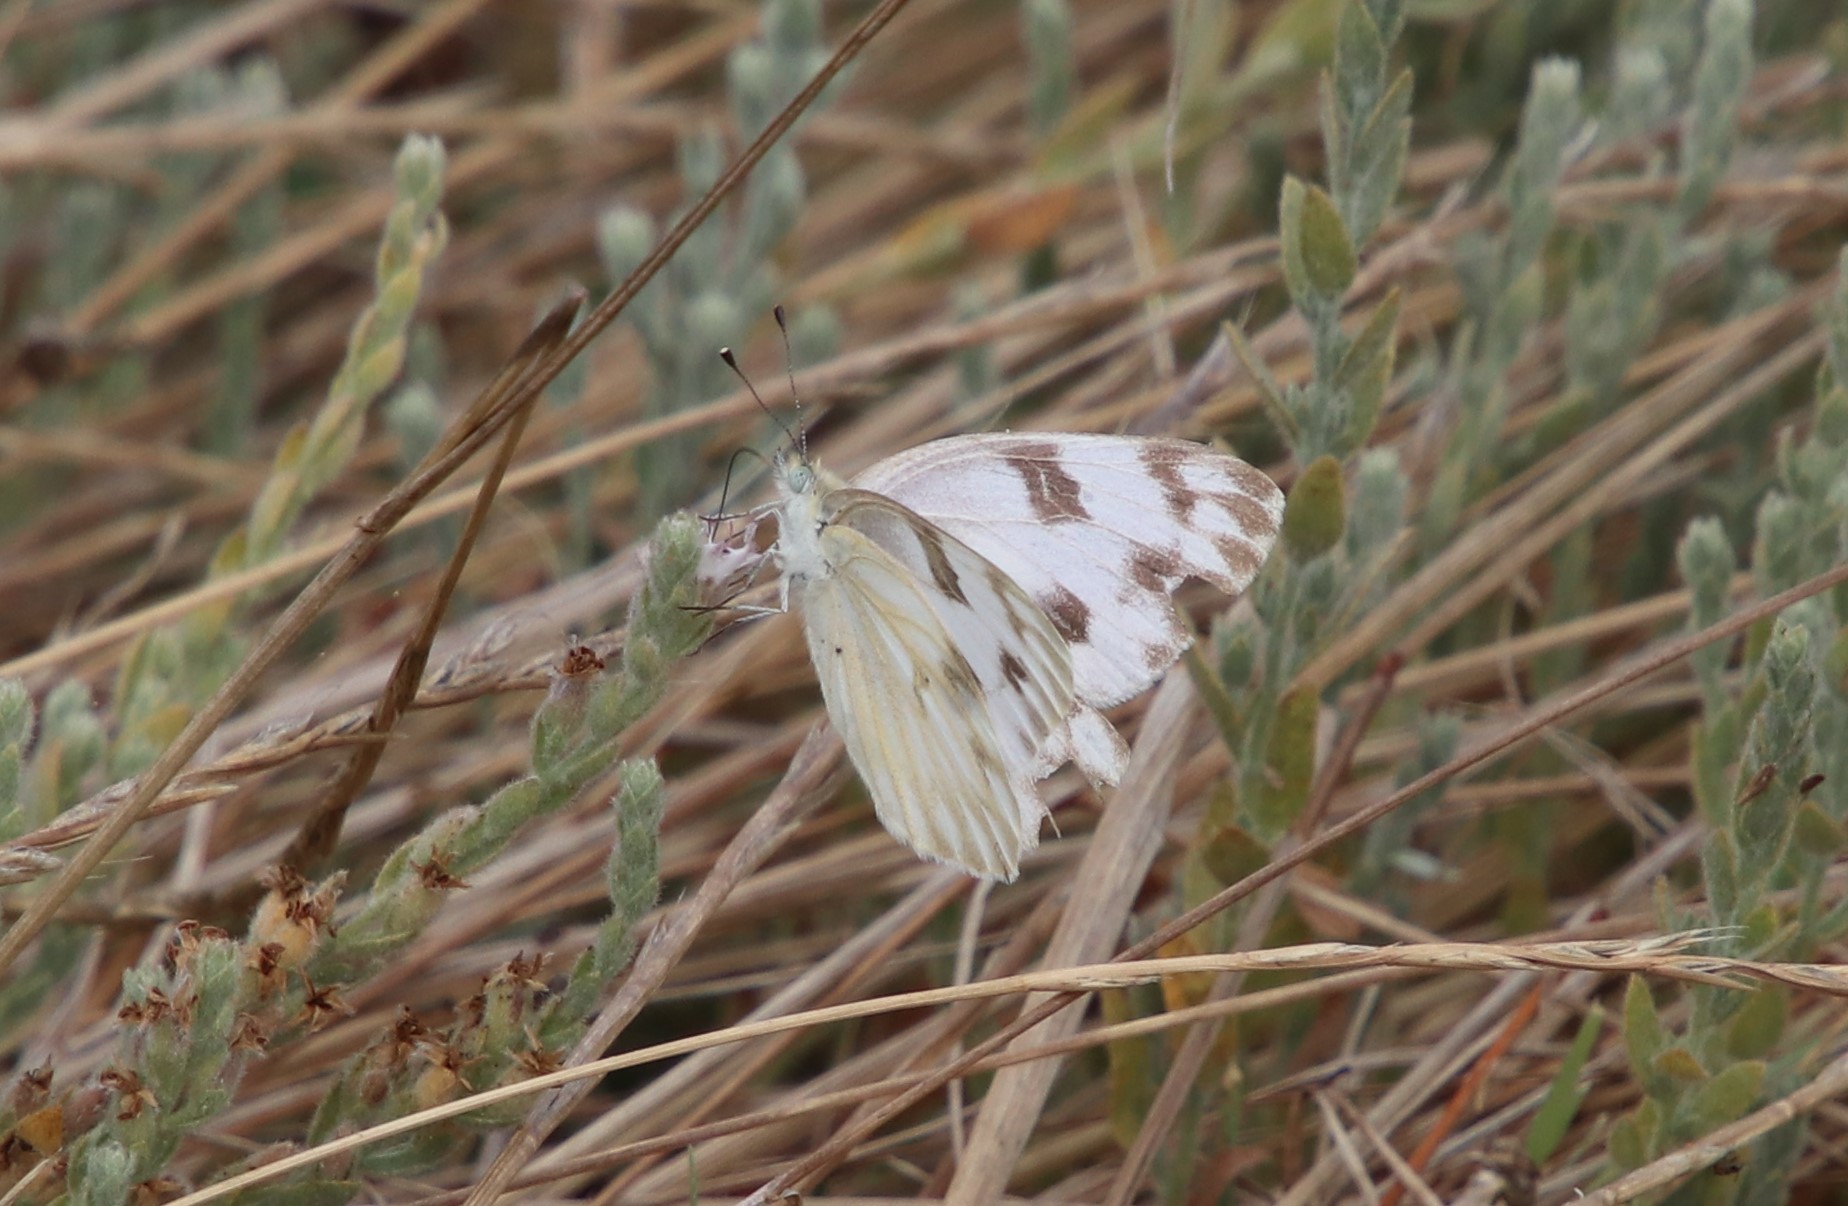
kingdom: Animalia
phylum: Arthropoda
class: Insecta
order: Lepidoptera
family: Pieridae
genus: Pontia
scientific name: Pontia protodice
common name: Checkered white
